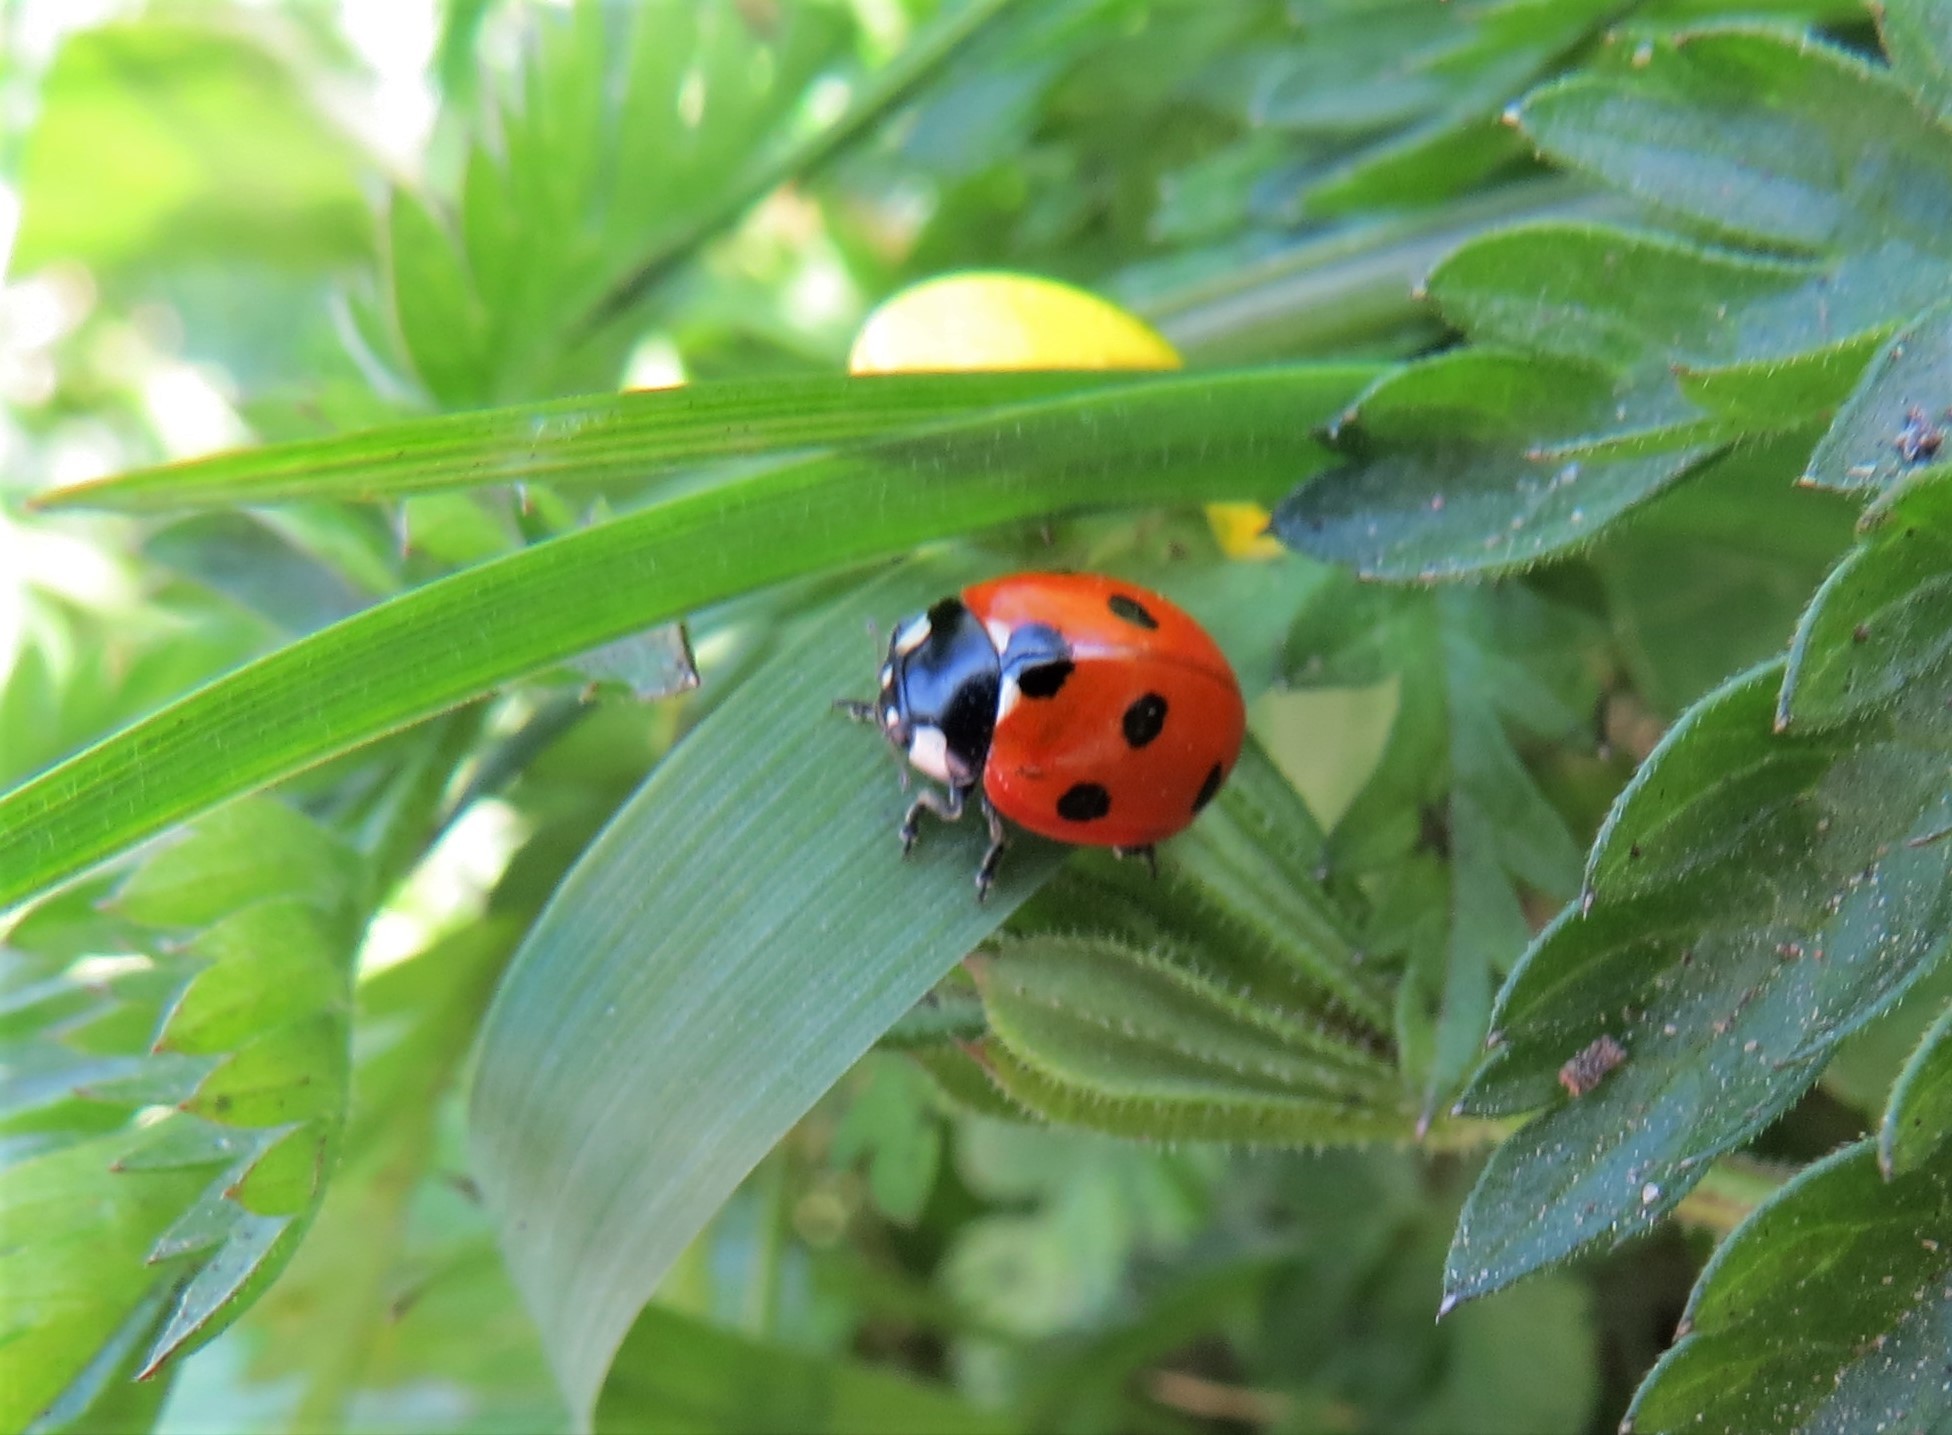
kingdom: Animalia
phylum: Arthropoda
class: Insecta
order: Coleoptera
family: Coccinellidae
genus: Coccinella
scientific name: Coccinella septempunctata
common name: Sevenspotted lady beetle
